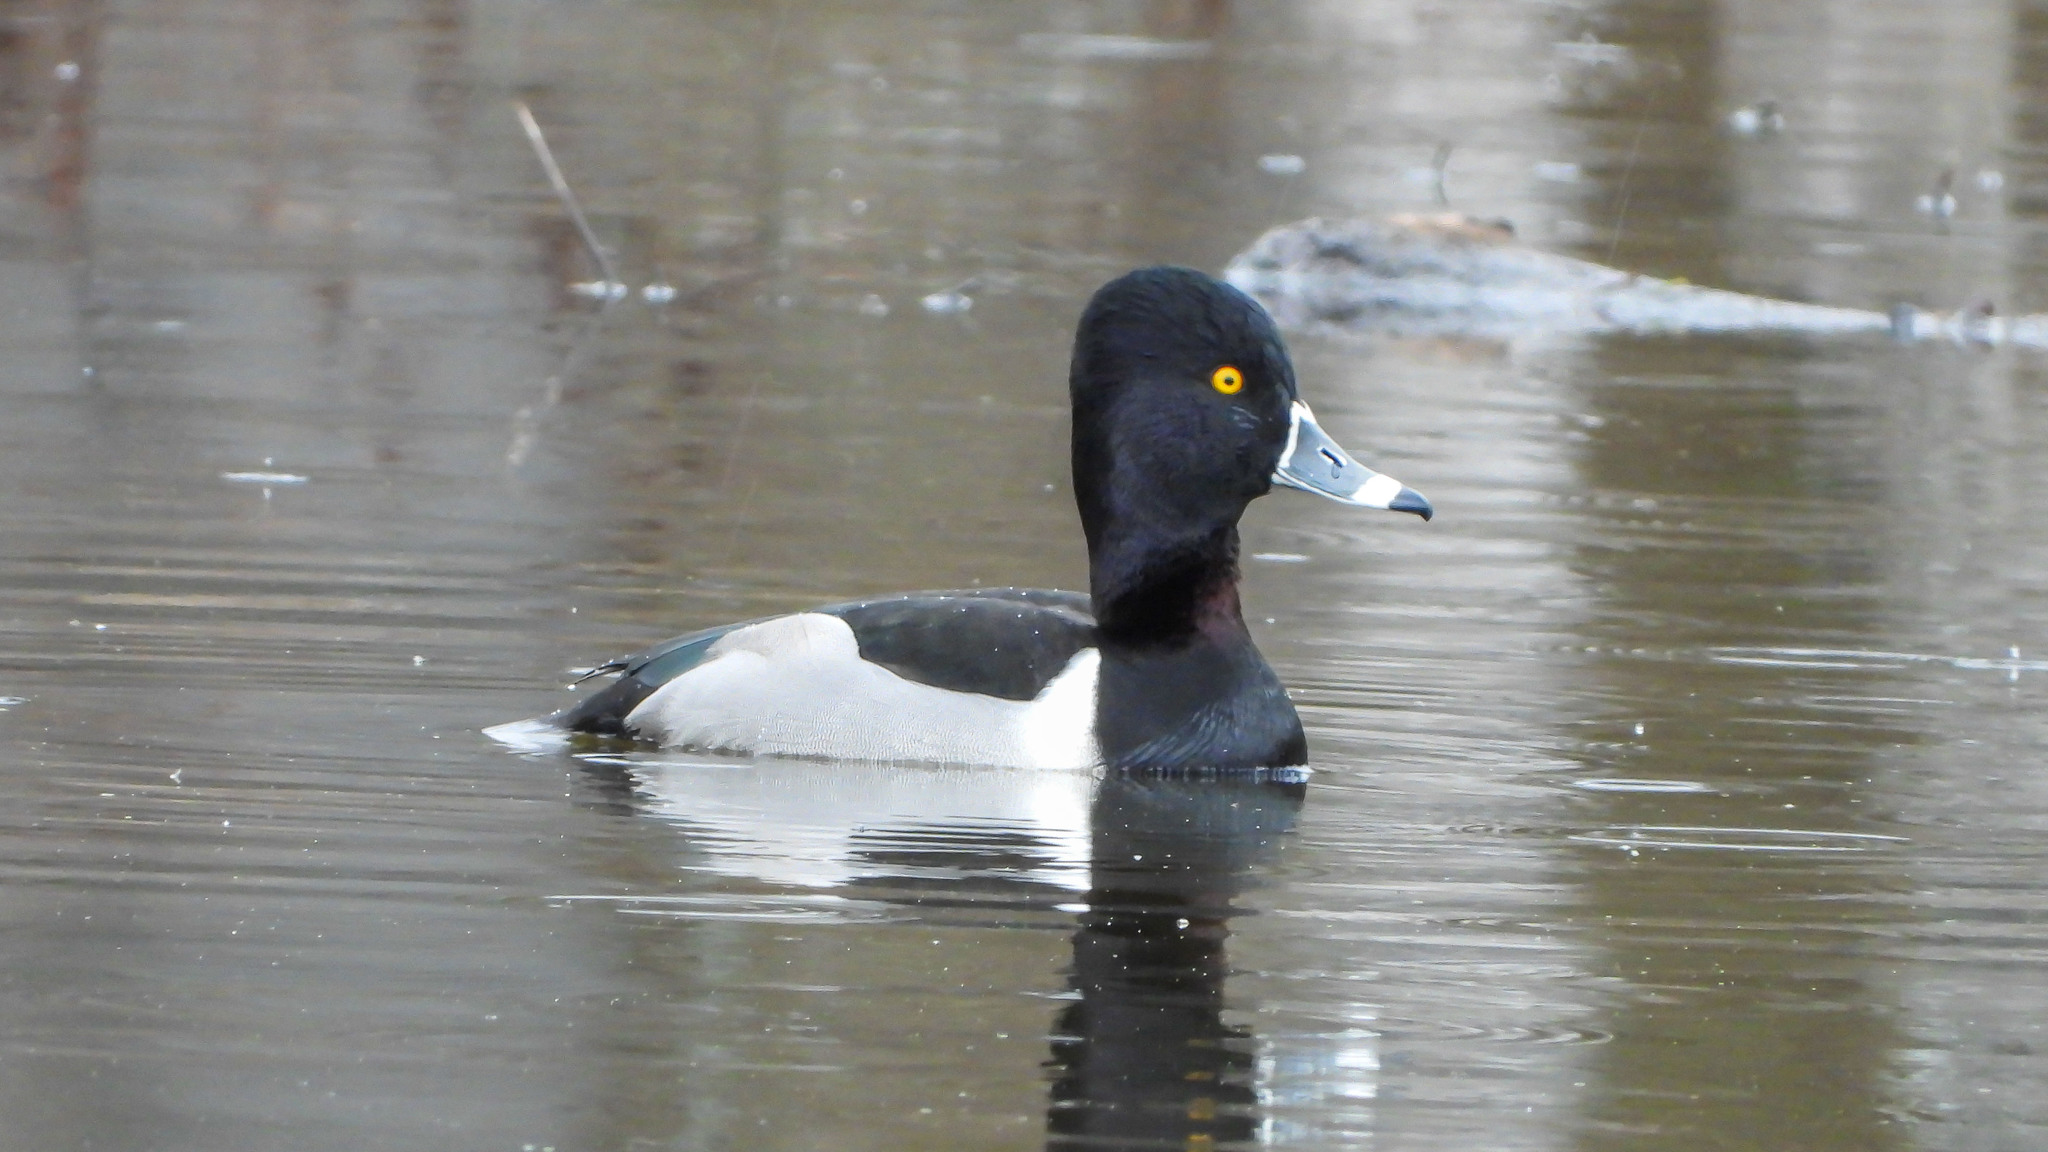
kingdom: Animalia
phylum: Chordata
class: Aves
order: Anseriformes
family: Anatidae
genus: Aythya
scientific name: Aythya collaris
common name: Ring-necked duck
